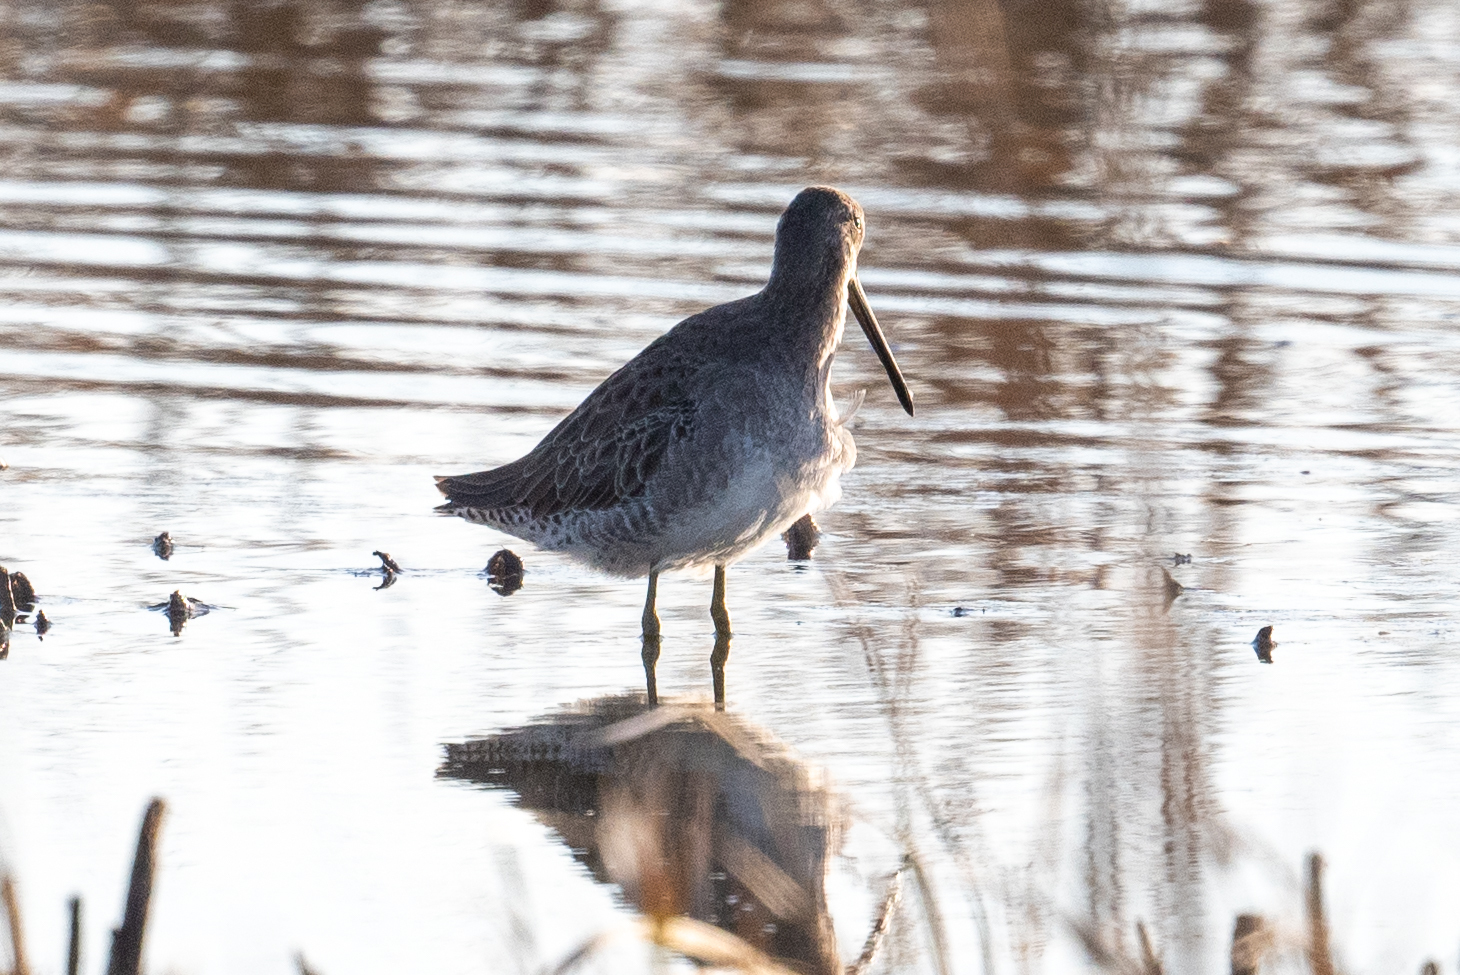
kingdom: Animalia
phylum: Chordata
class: Aves
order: Charadriiformes
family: Scolopacidae
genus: Limnodromus
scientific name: Limnodromus scolopaceus
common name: Long-billed dowitcher
